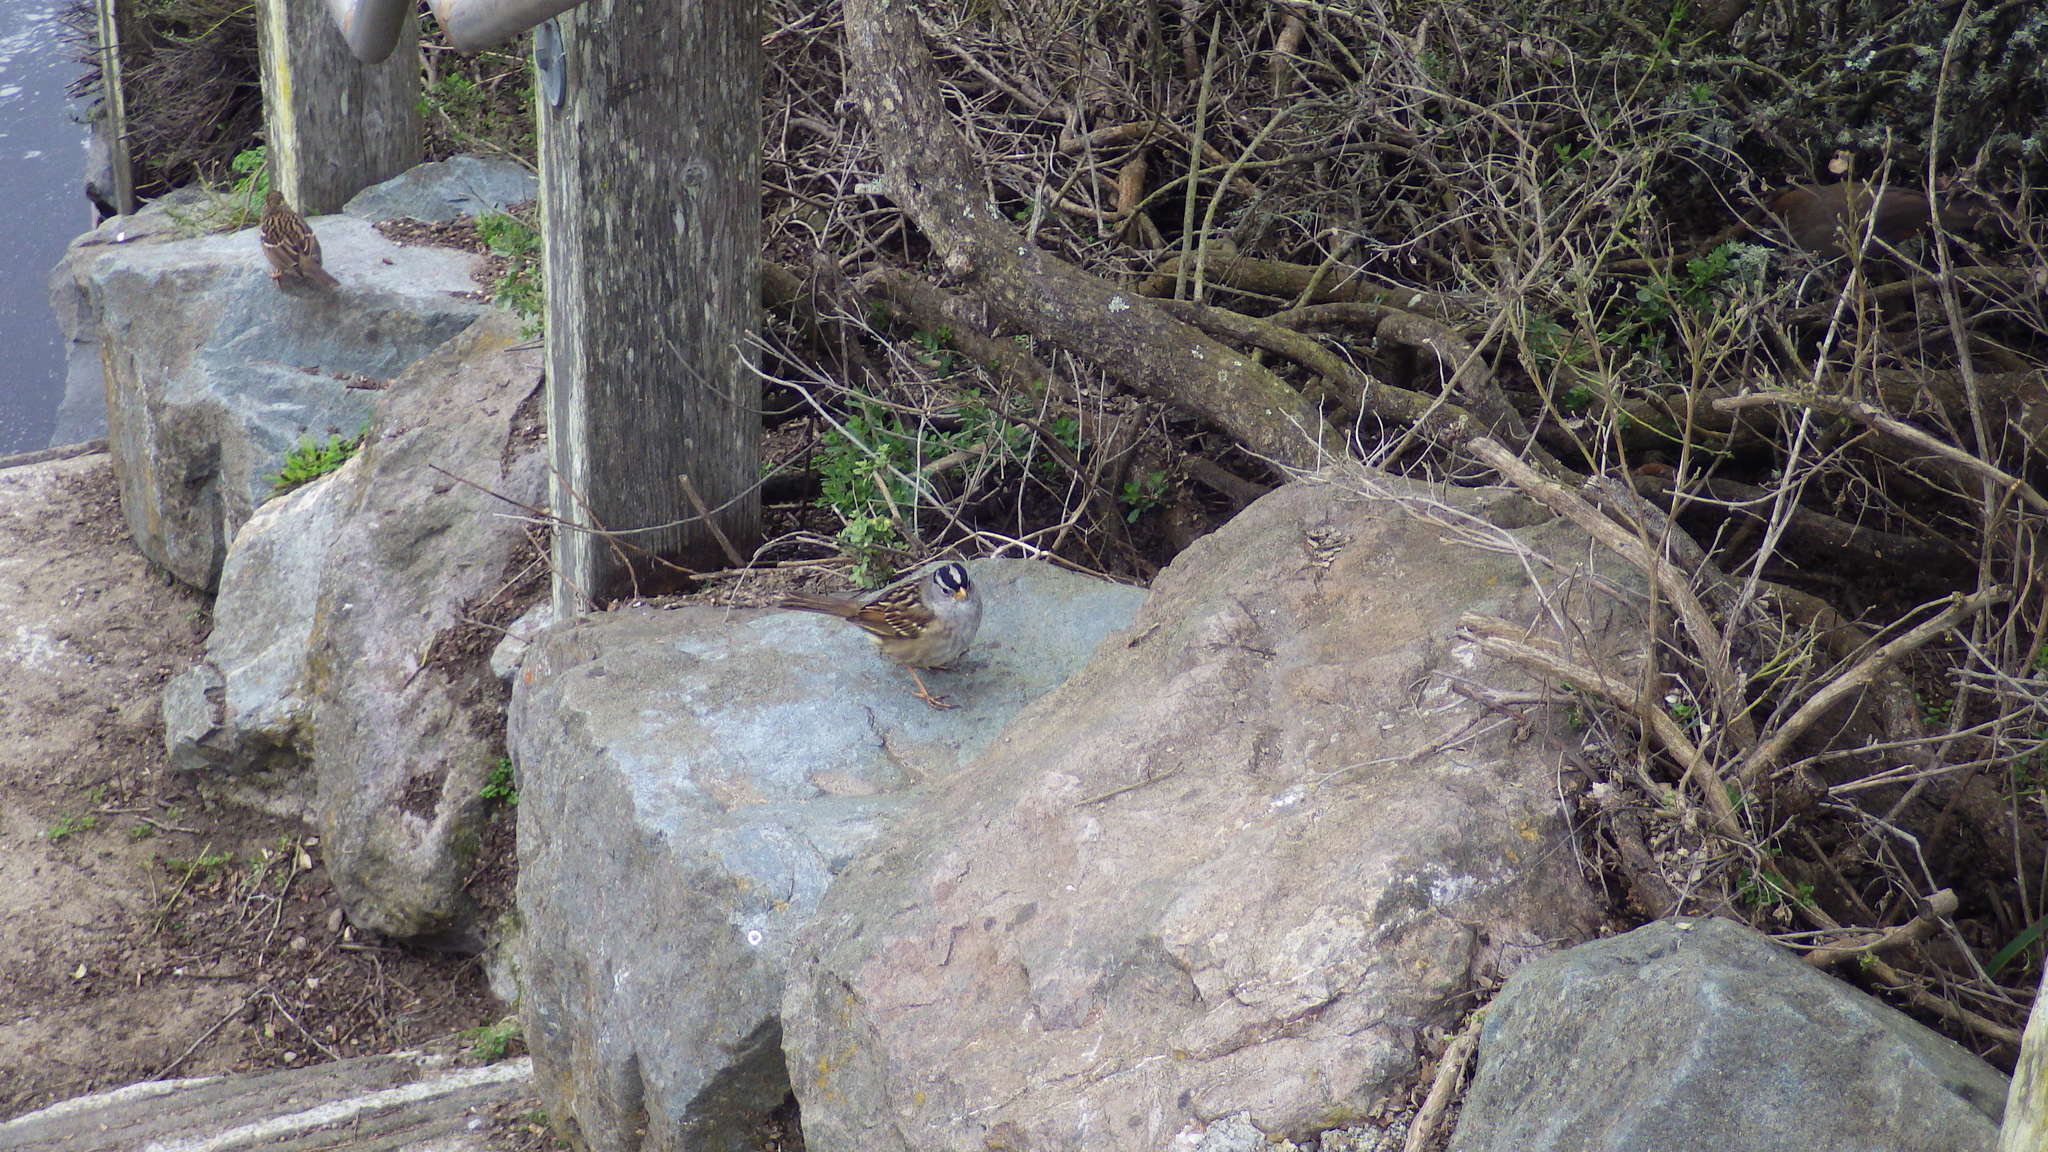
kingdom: Animalia
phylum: Chordata
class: Aves
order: Passeriformes
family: Passerellidae
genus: Zonotrichia
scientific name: Zonotrichia leucophrys
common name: White-crowned sparrow
